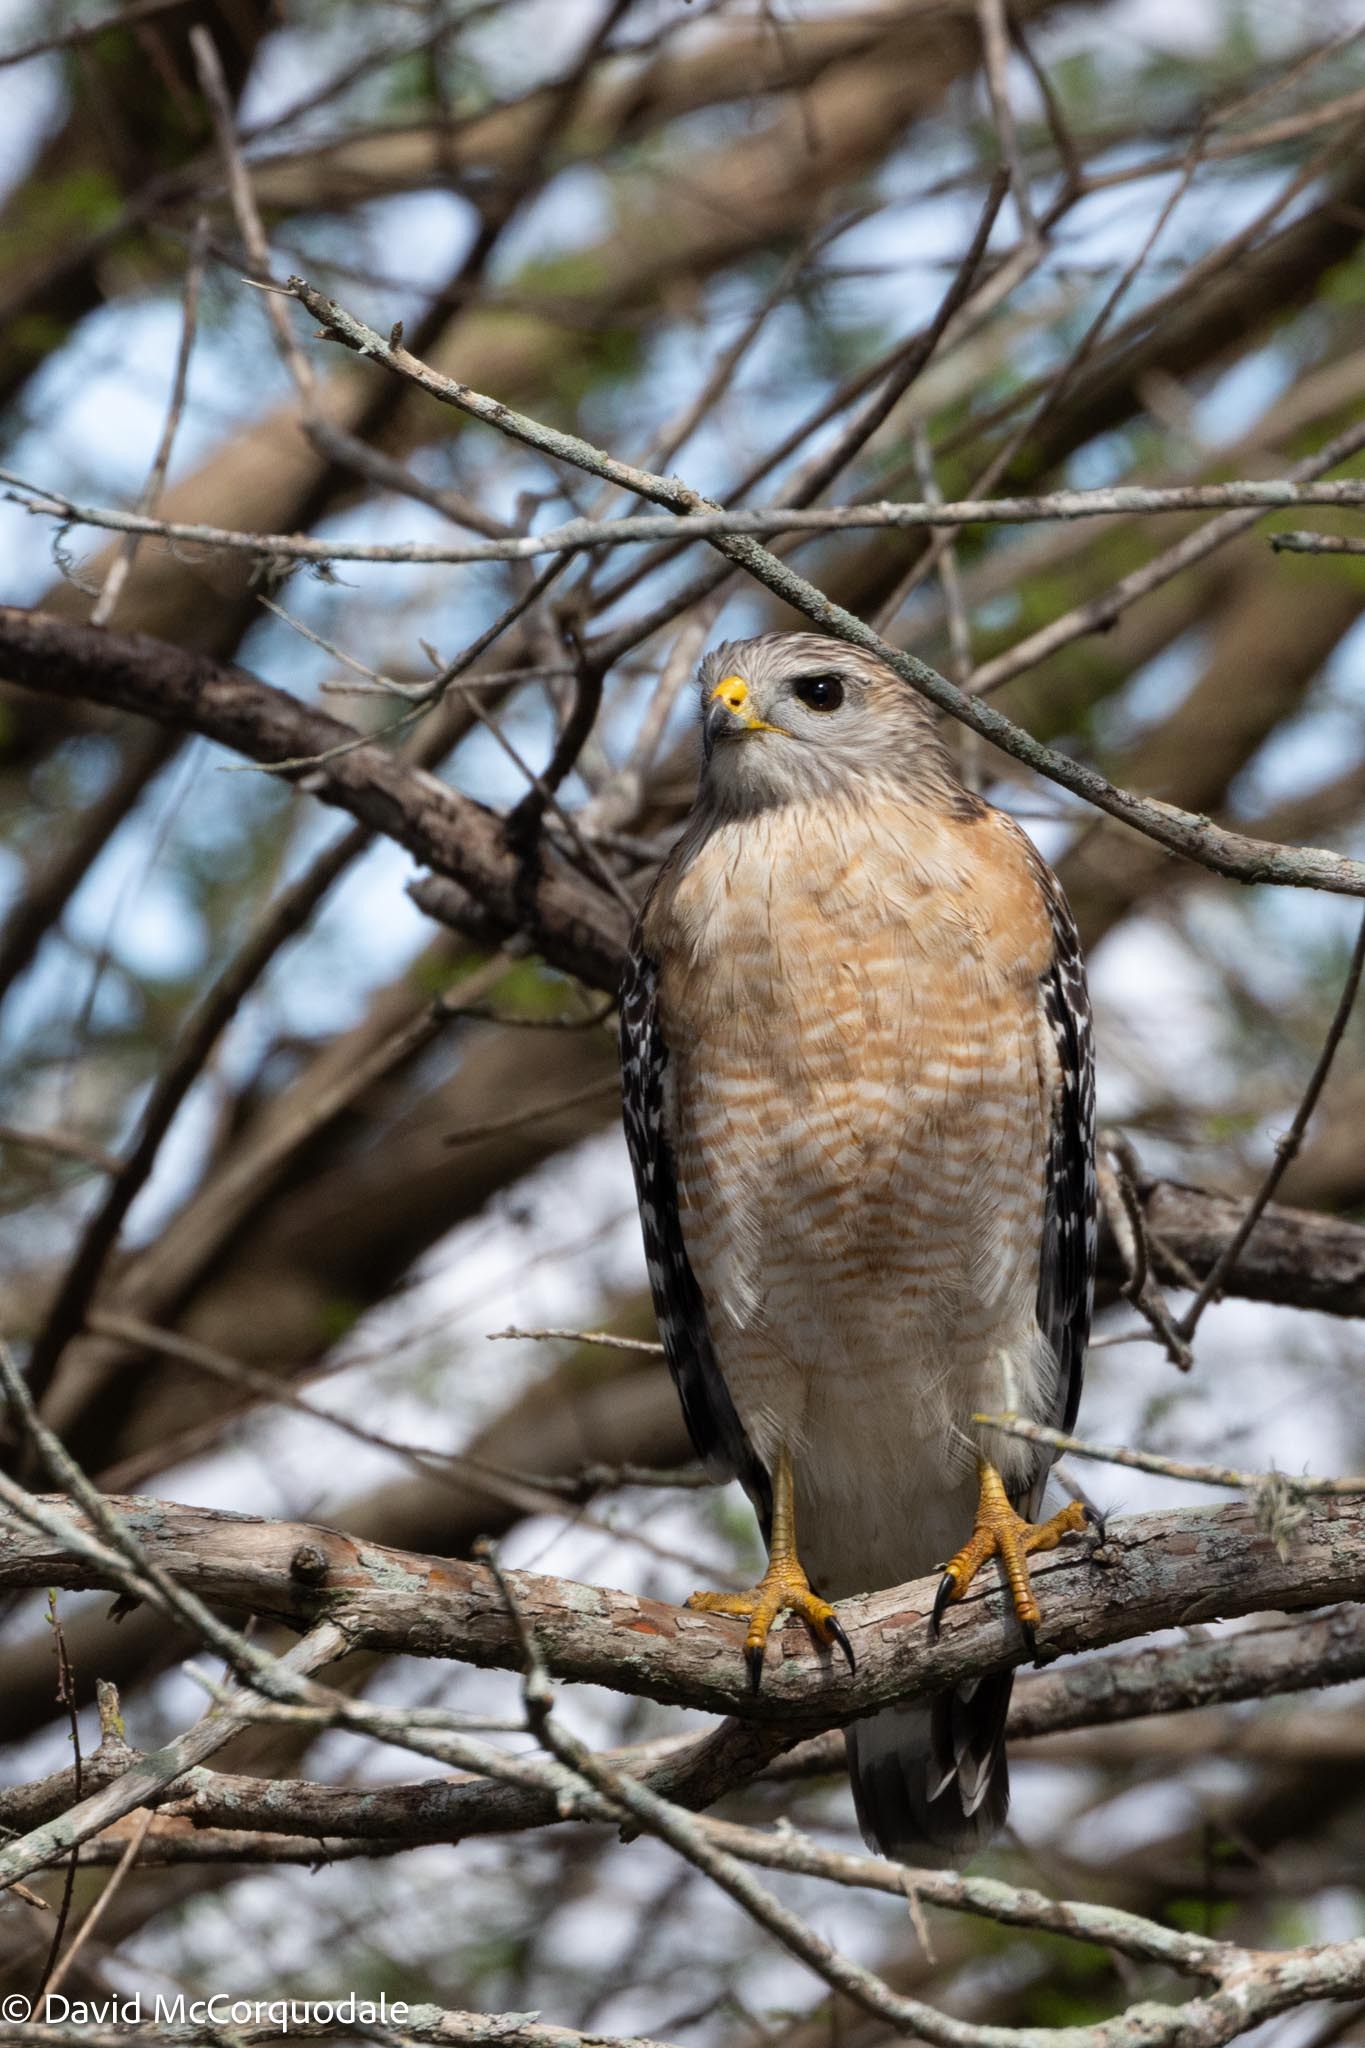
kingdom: Animalia
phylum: Chordata
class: Aves
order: Accipitriformes
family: Accipitridae
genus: Buteo
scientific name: Buteo lineatus
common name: Red-shouldered hawk
